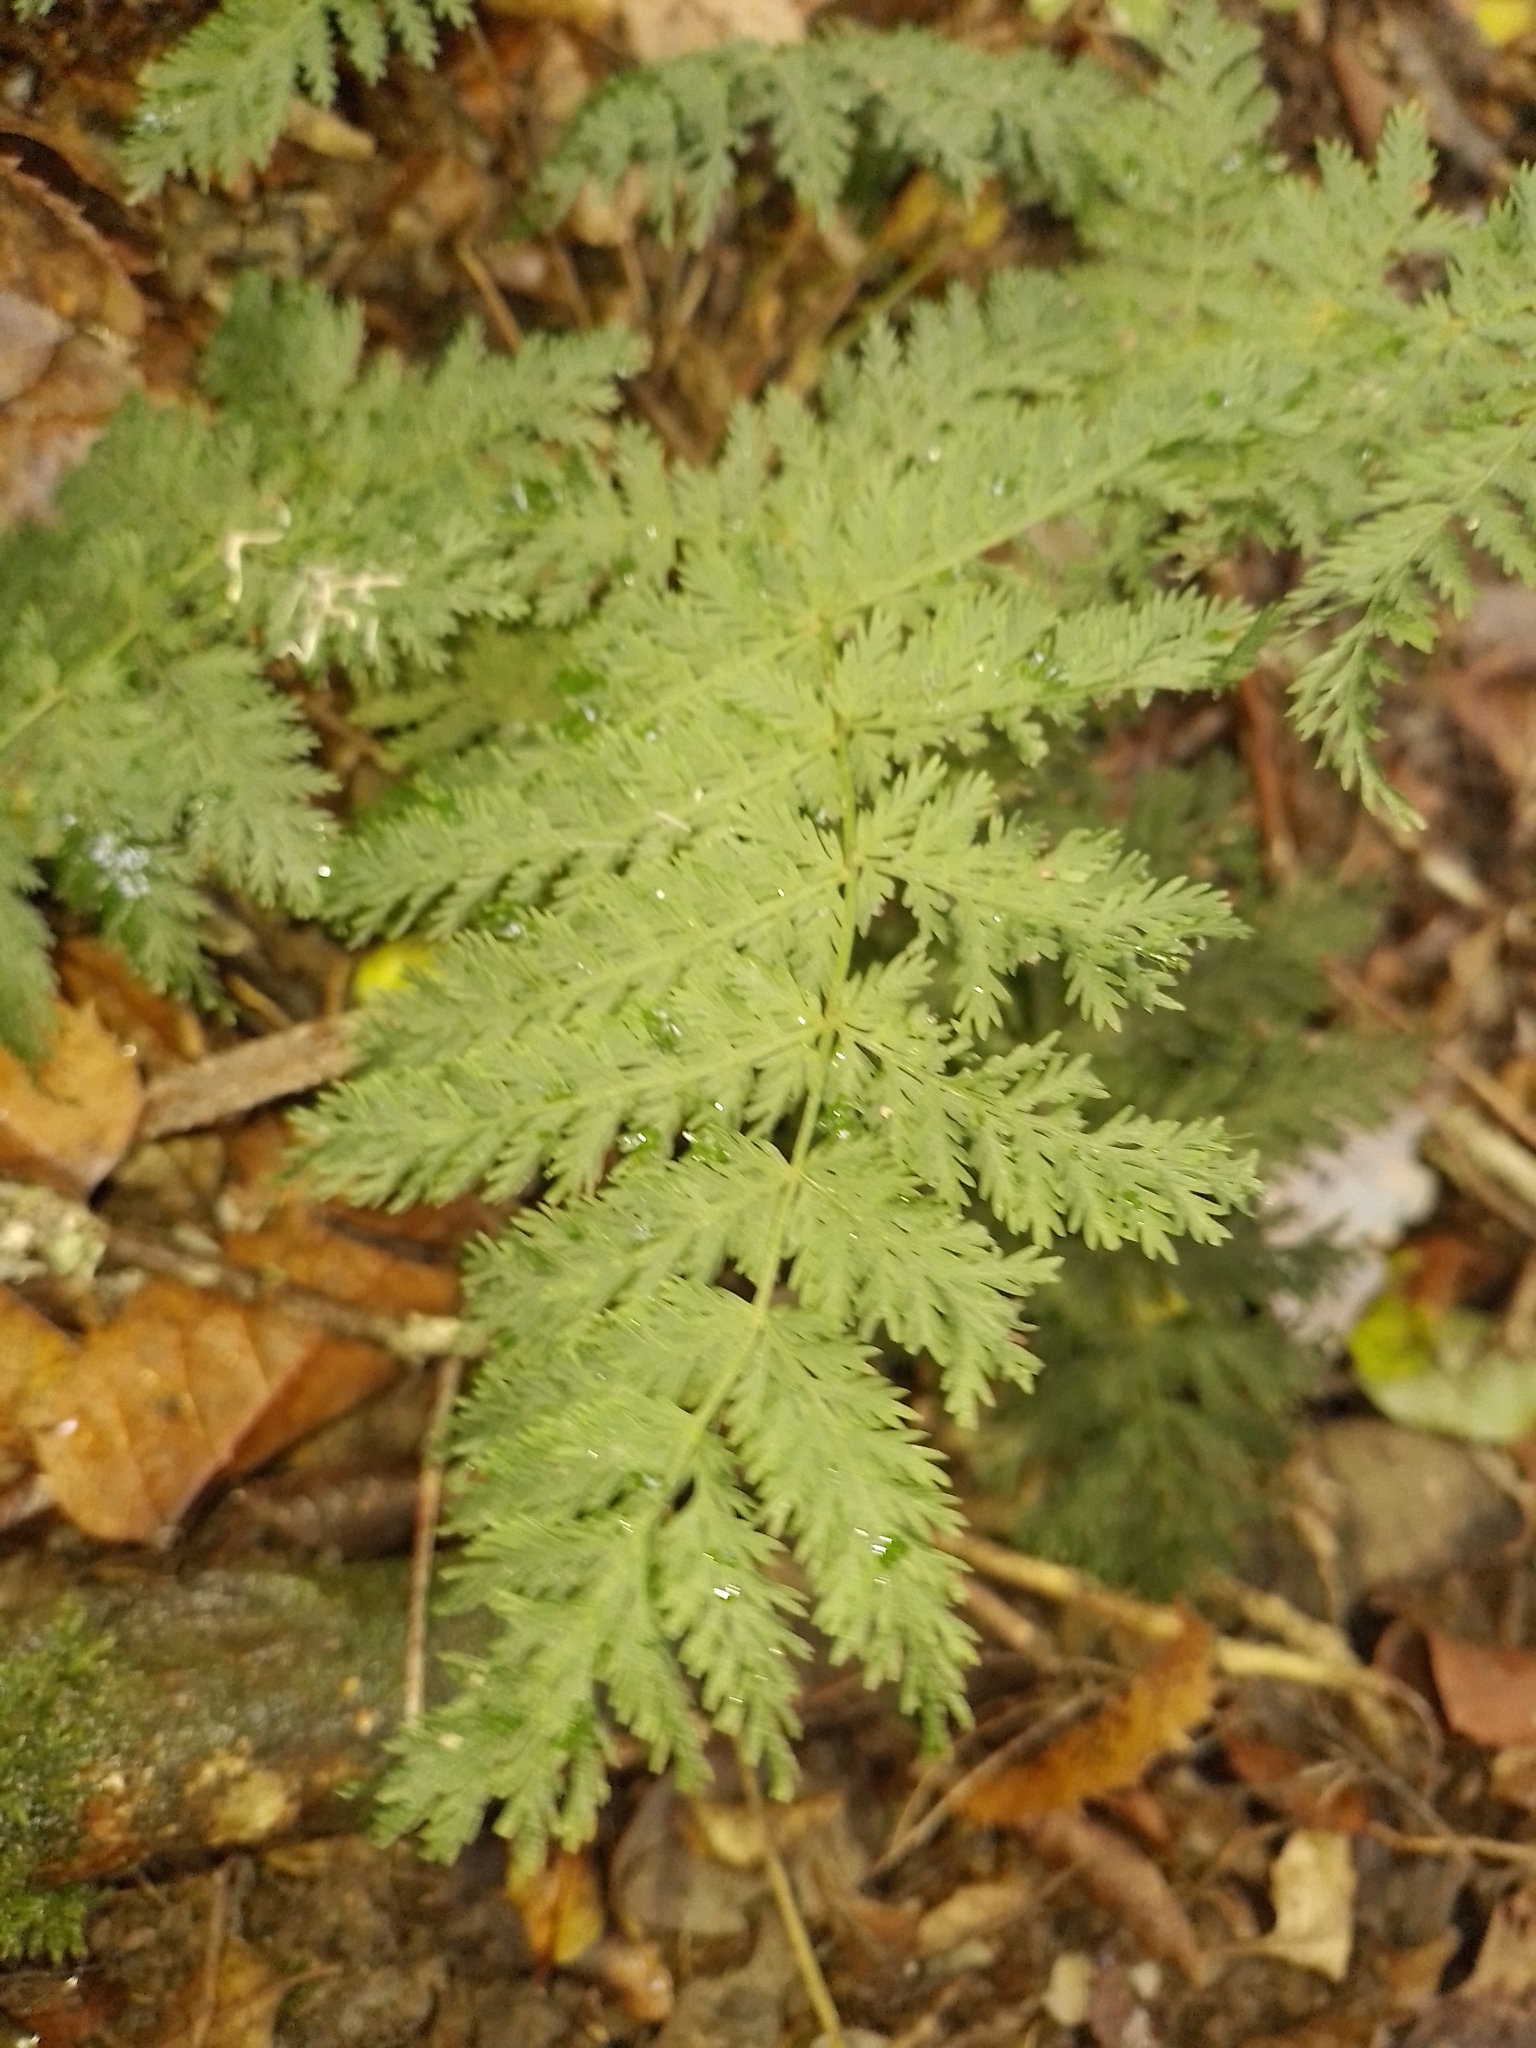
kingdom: Plantae
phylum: Tracheophyta
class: Polypodiopsida
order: Osmundales
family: Osmundaceae
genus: Leptopteris
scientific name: Leptopteris hymenophylloides
